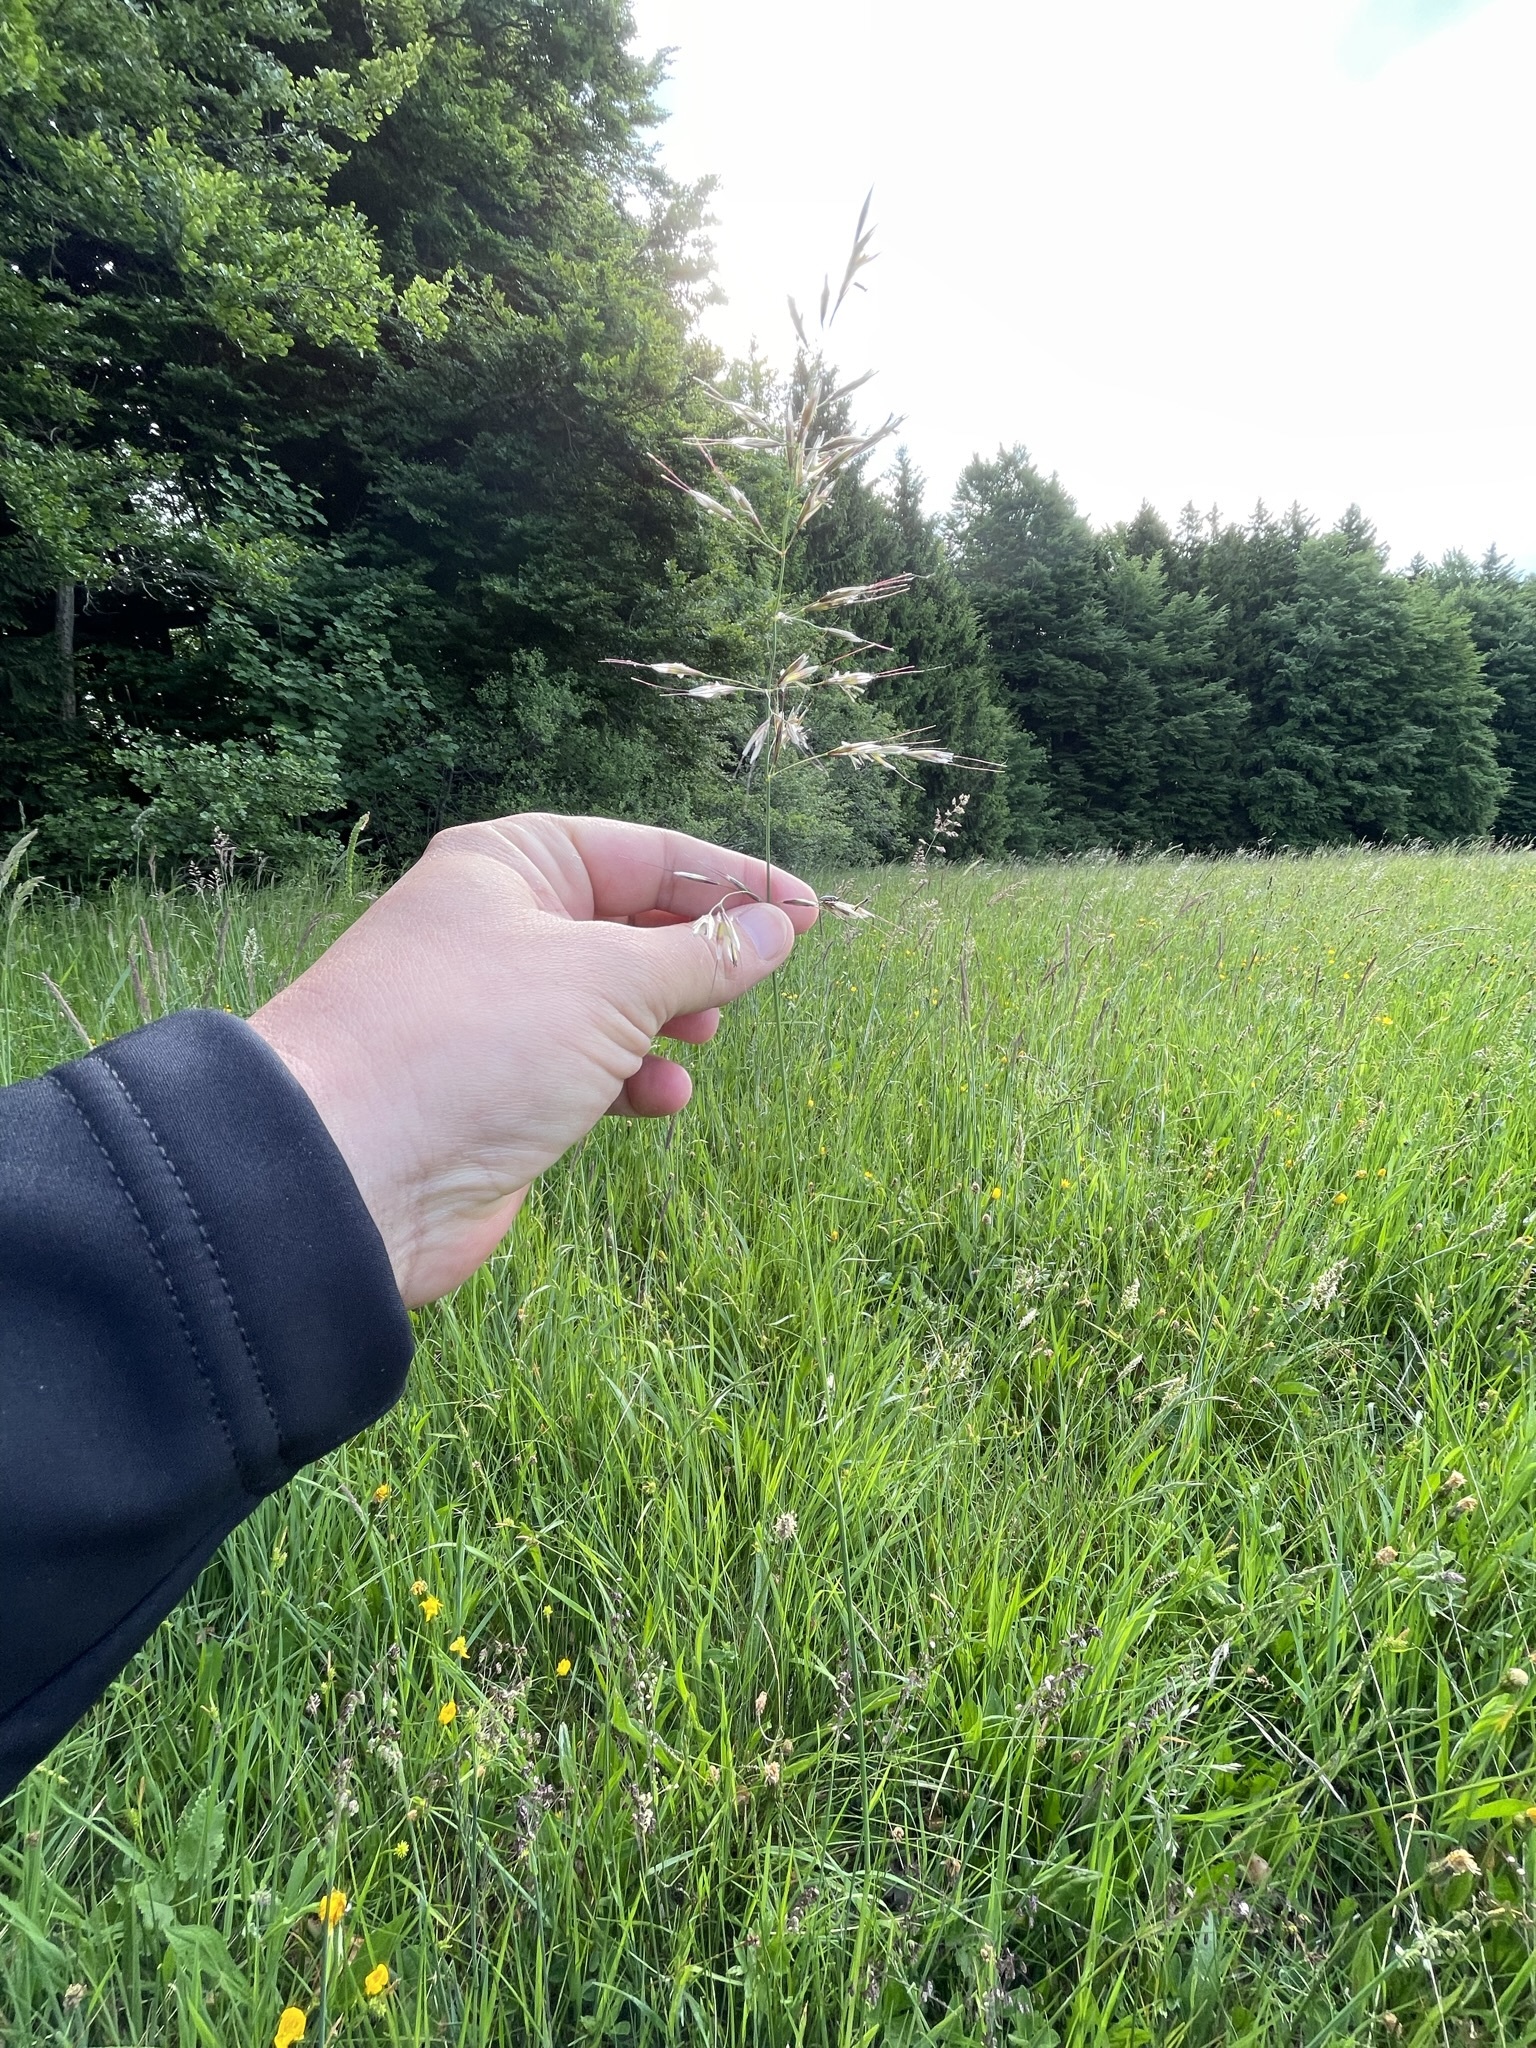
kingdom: Plantae
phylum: Tracheophyta
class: Liliopsida
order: Poales
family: Poaceae
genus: Avenula
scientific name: Avenula pubescens
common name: Downy alpine oatgrass
